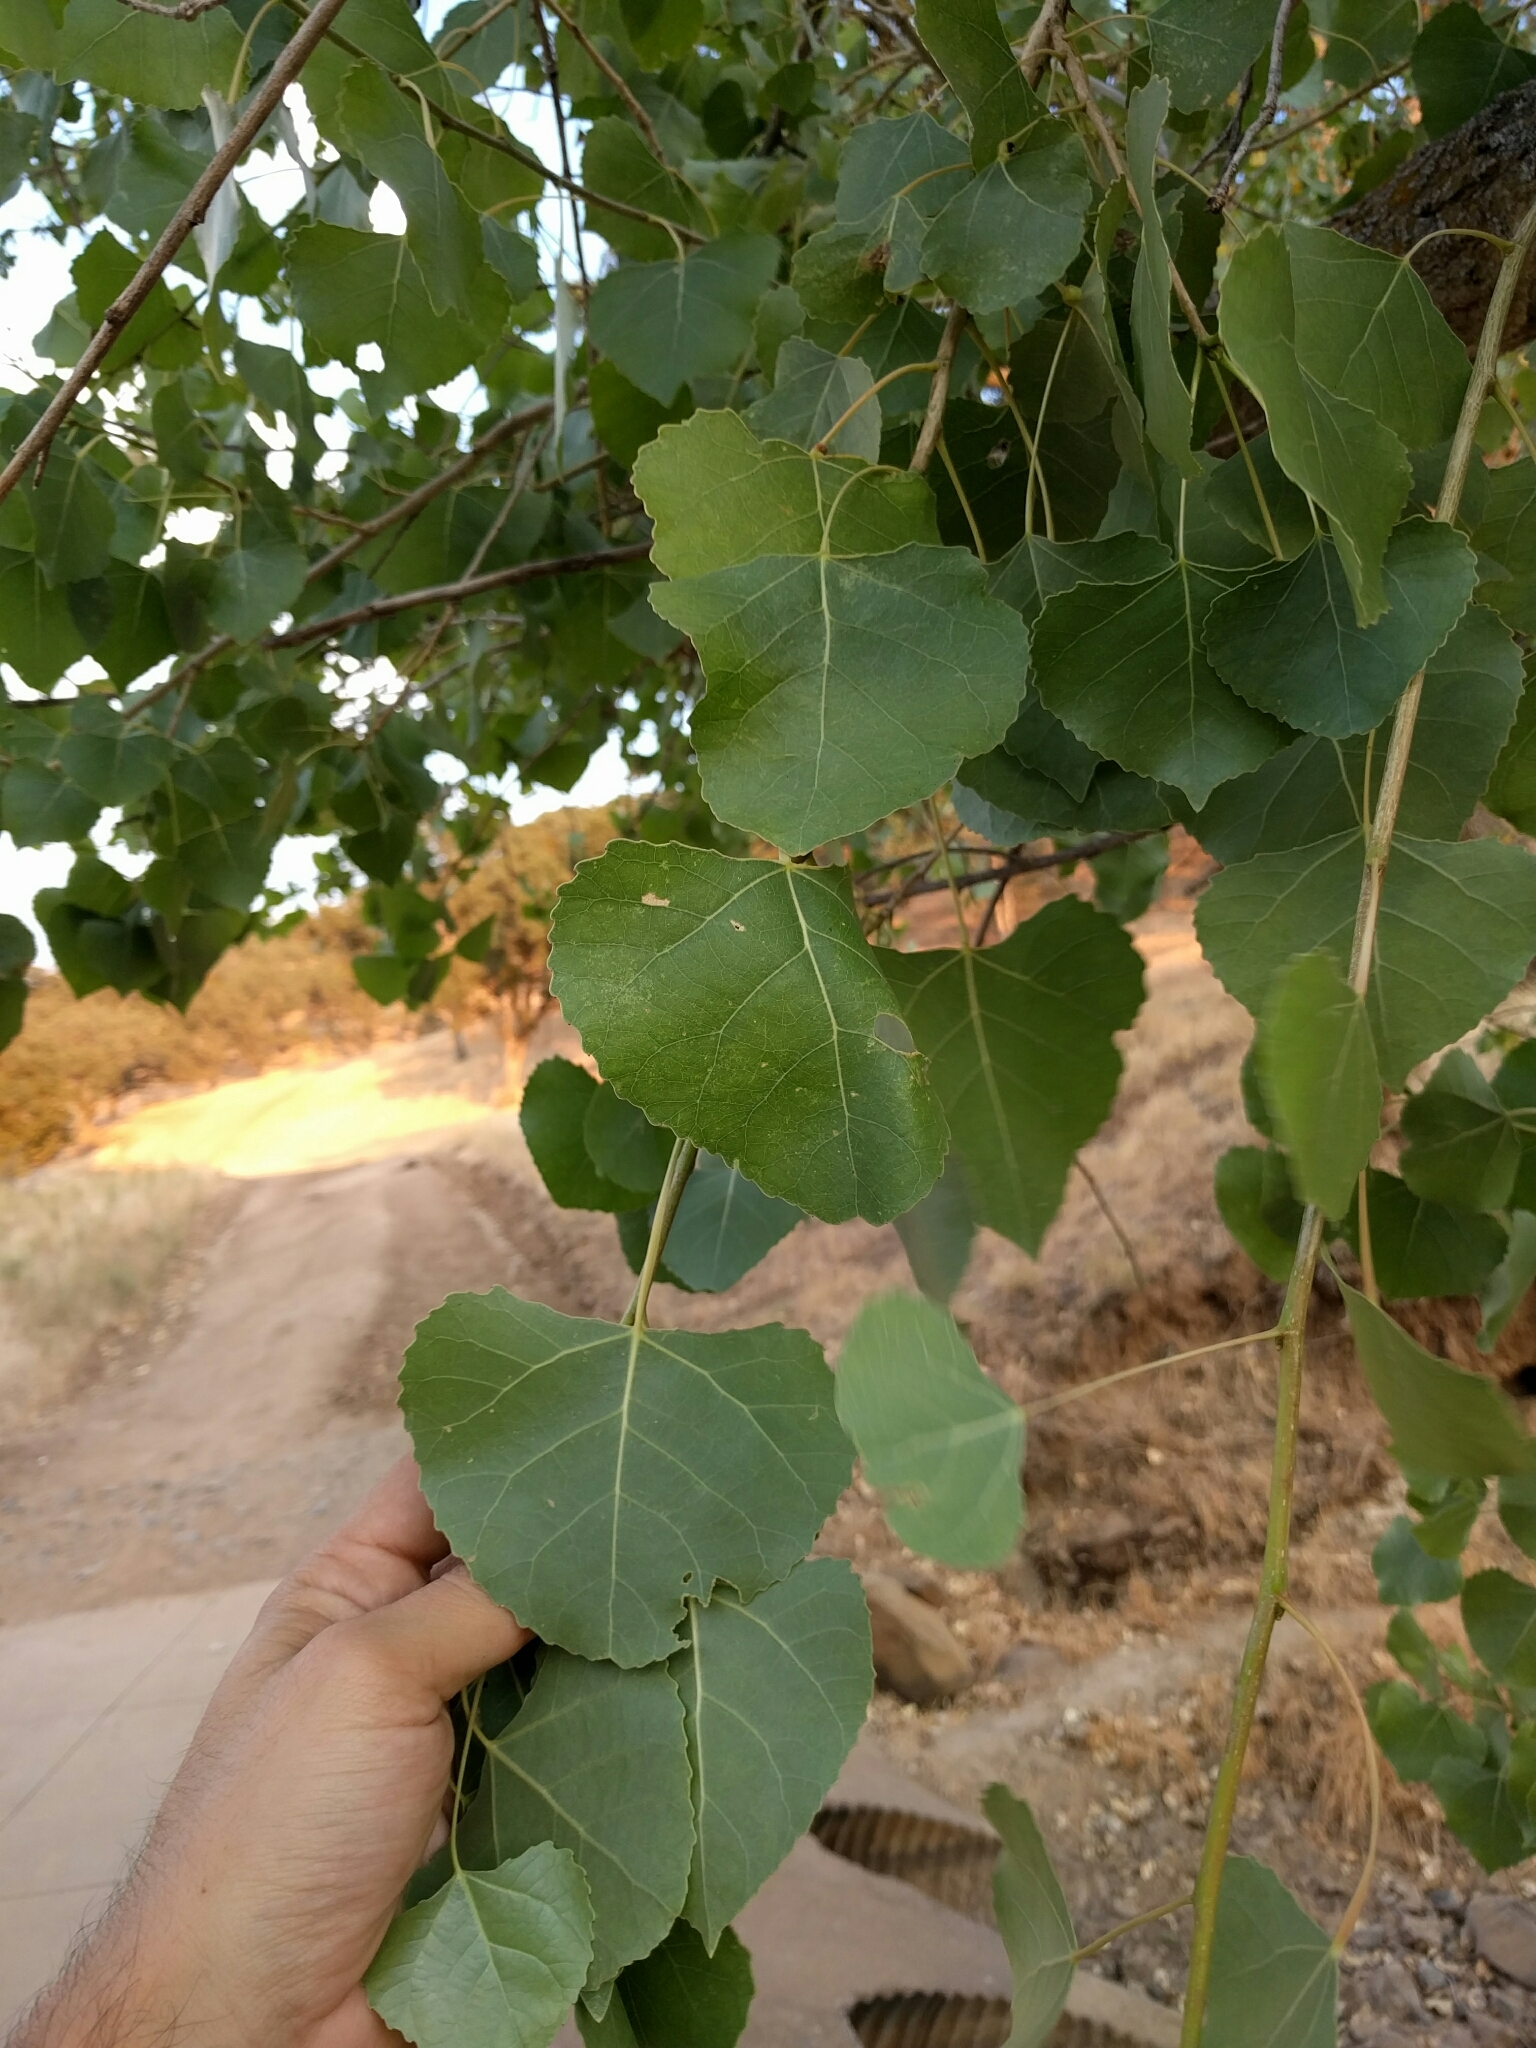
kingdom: Plantae
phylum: Tracheophyta
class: Magnoliopsida
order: Malpighiales
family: Salicaceae
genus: Populus
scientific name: Populus fremontii
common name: Fremont's cottonwood
